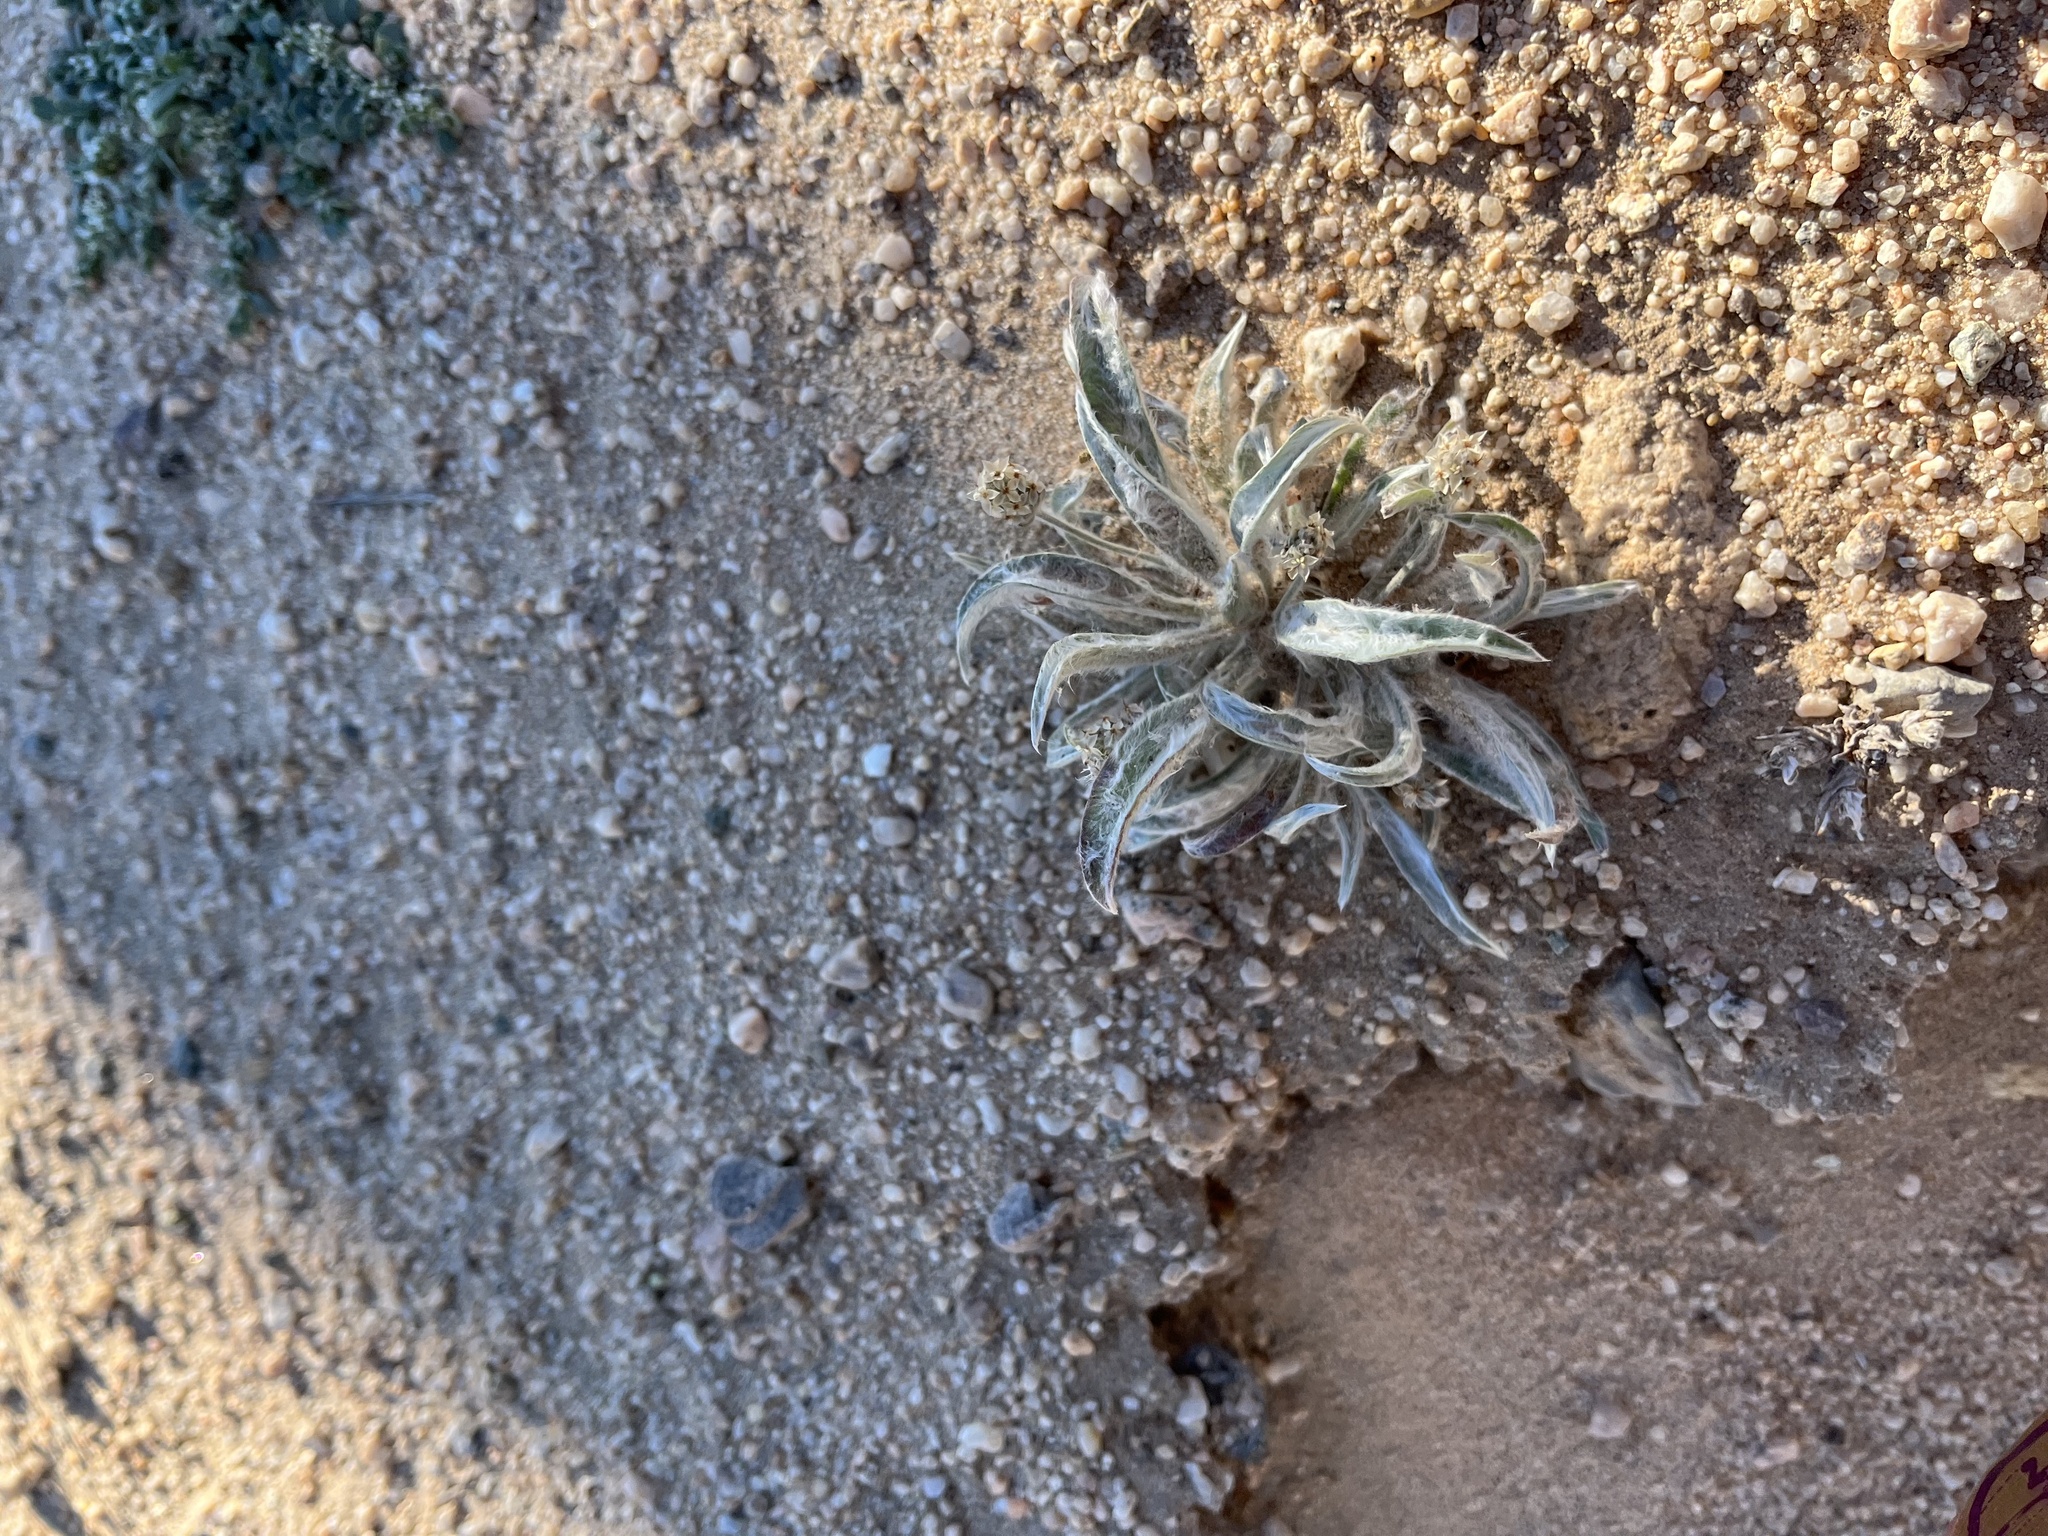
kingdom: Plantae
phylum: Tracheophyta
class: Magnoliopsida
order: Lamiales
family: Plantaginaceae
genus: Plantago
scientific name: Plantago ovata
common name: Blond plantain
